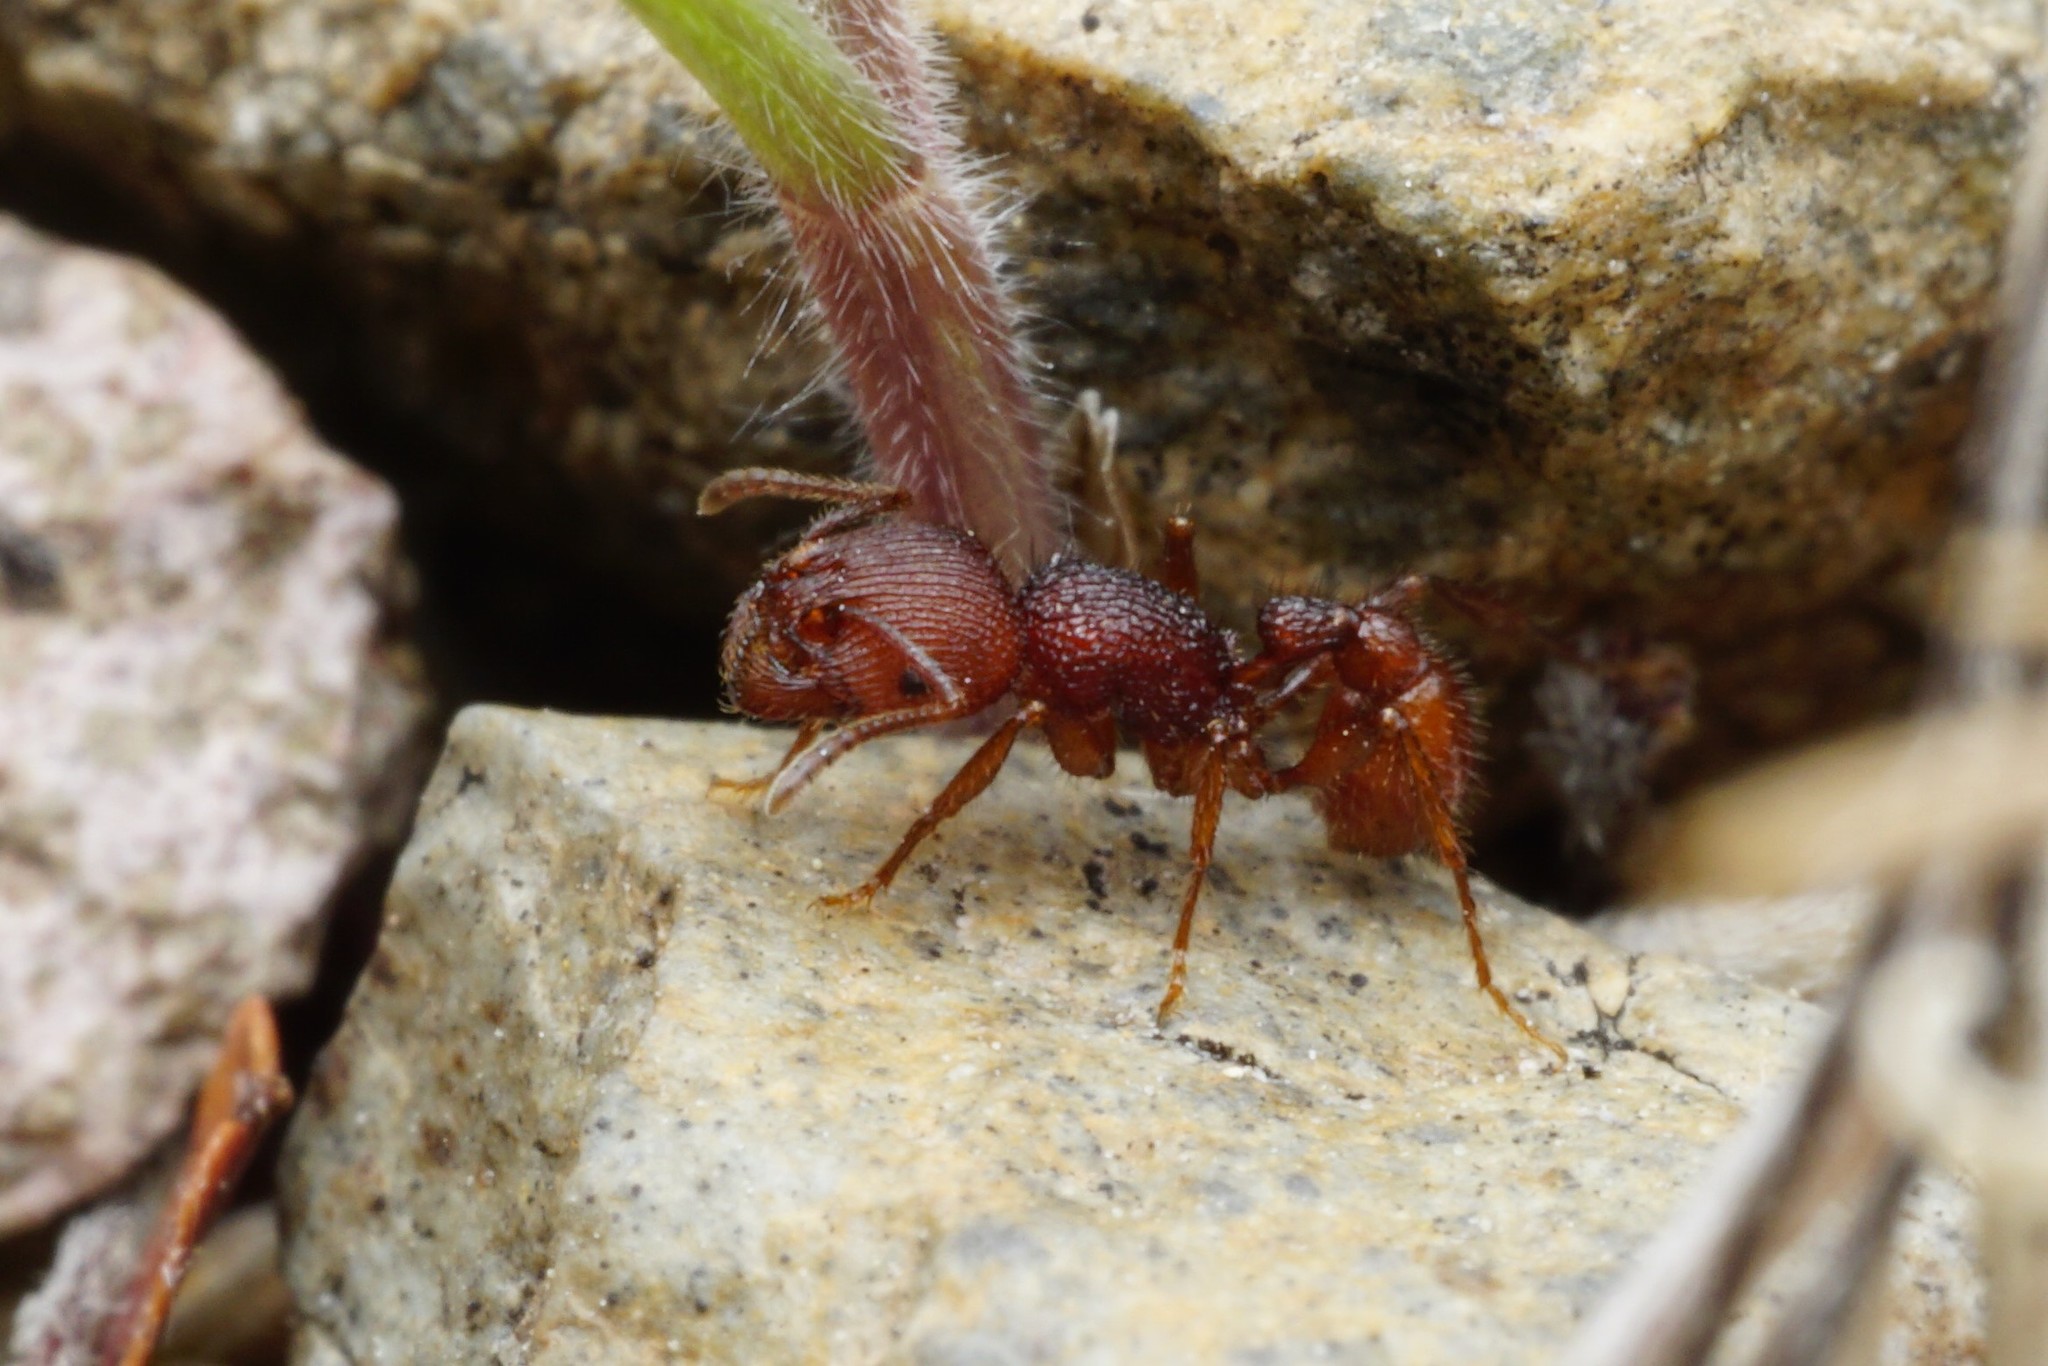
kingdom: Animalia
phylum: Arthropoda
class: Insecta
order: Hymenoptera
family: Formicidae
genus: Pogonomyrmex
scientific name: Pogonomyrmex imberbiculus
